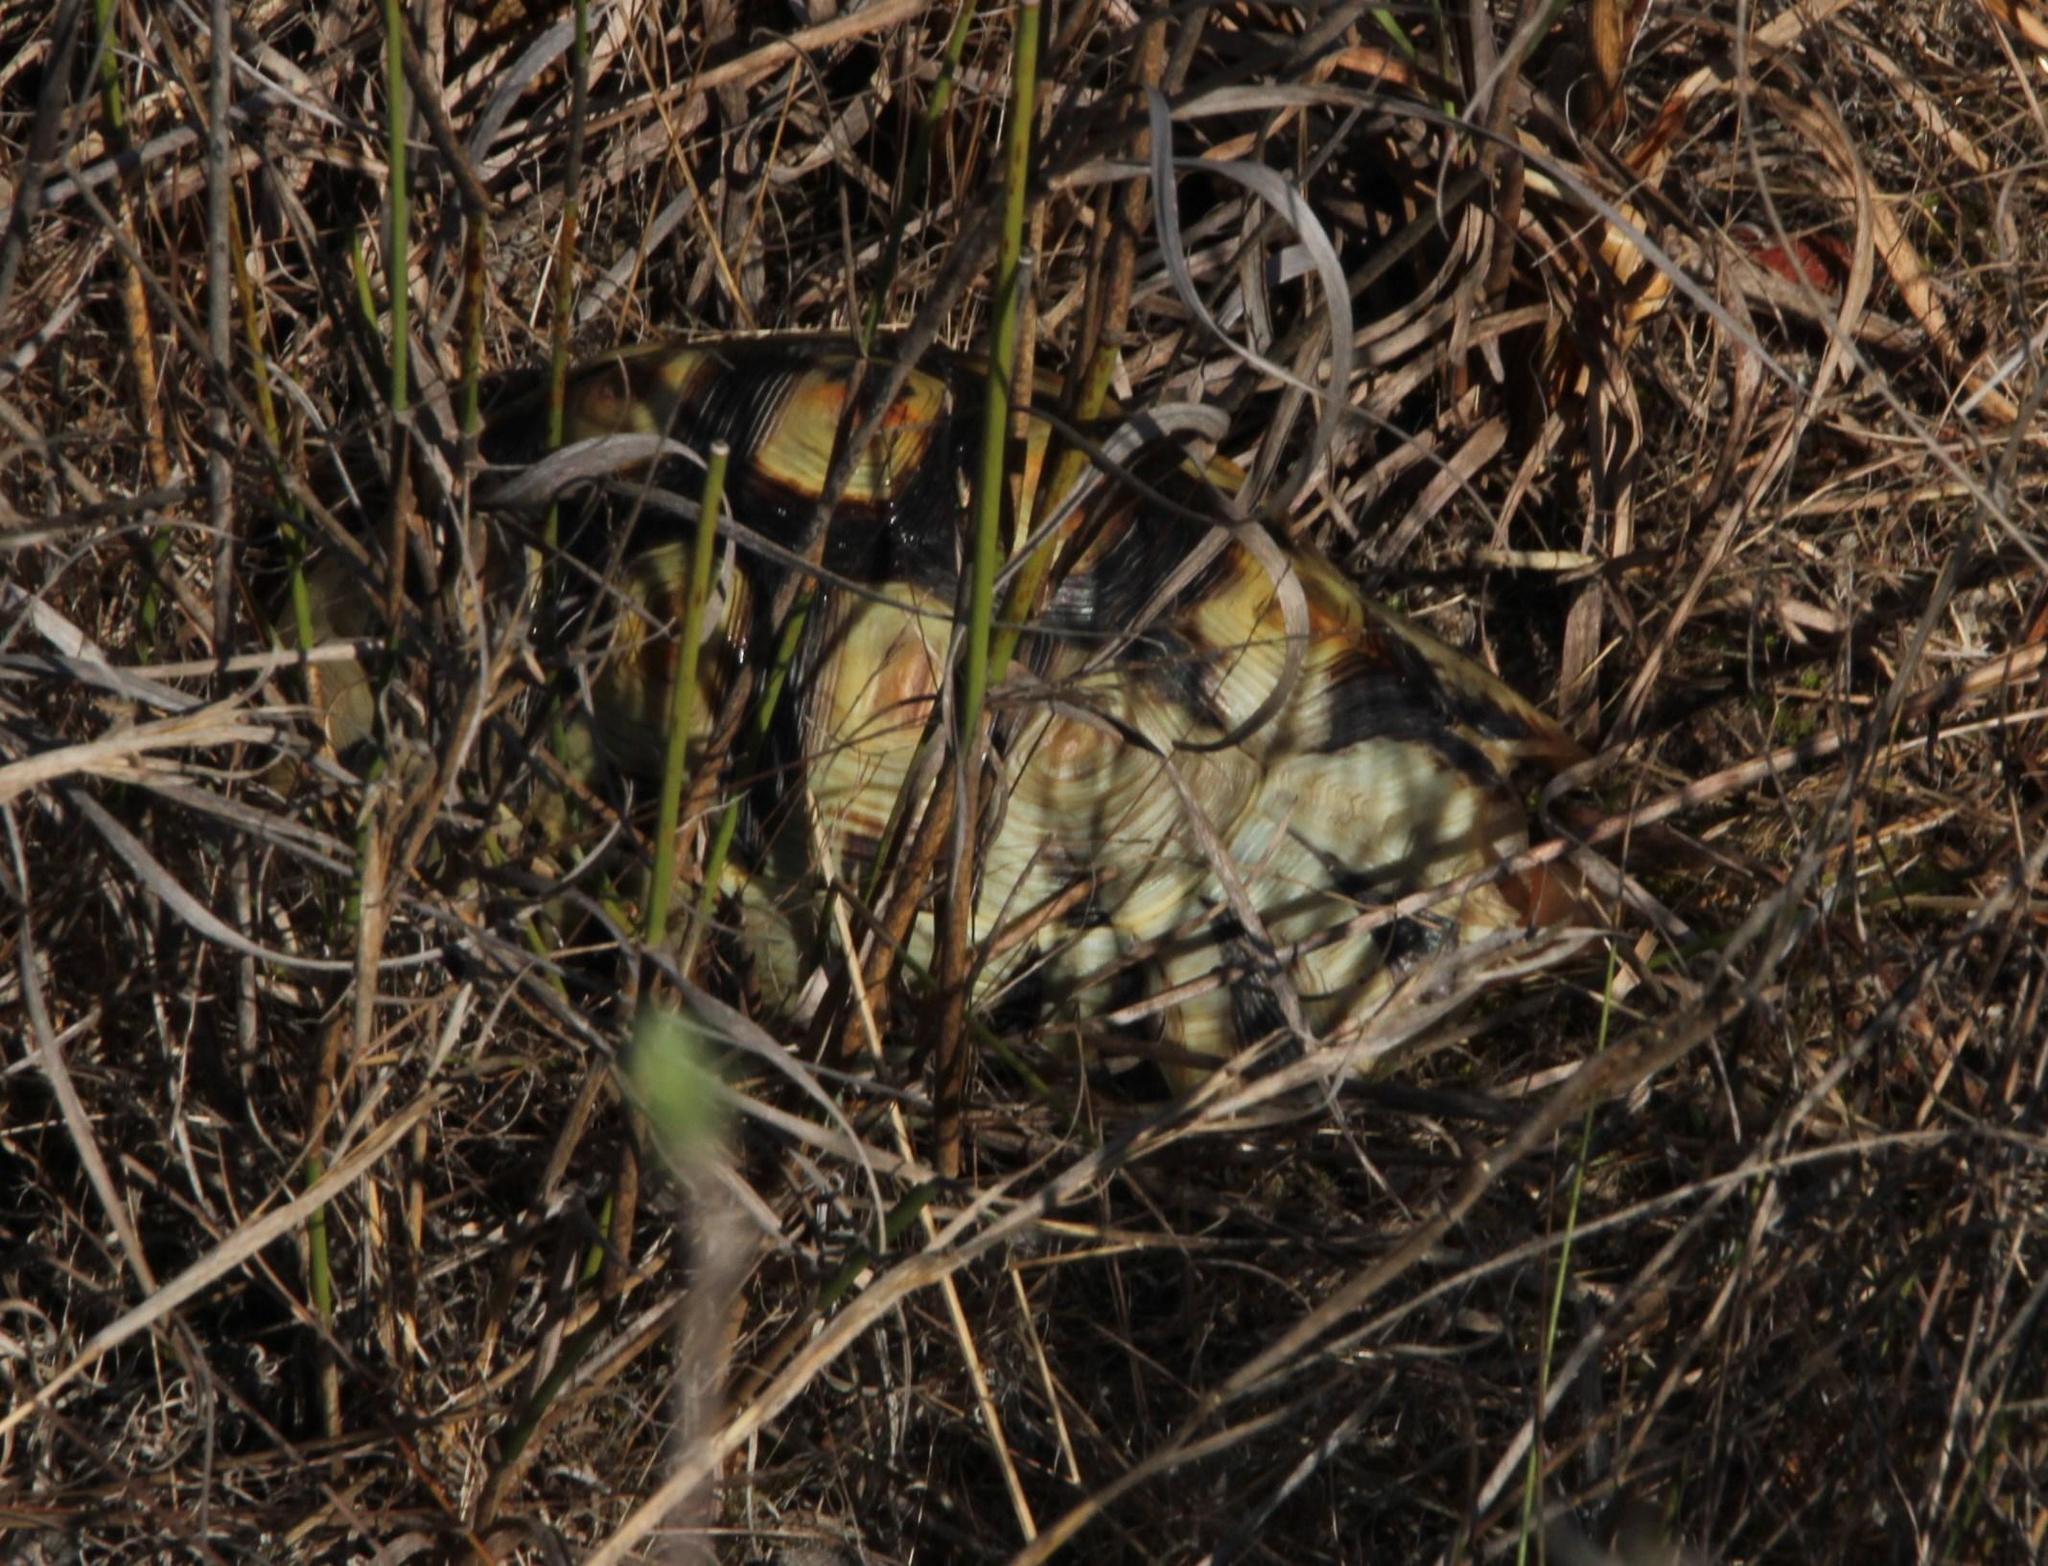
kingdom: Animalia
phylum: Chordata
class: Testudines
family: Testudinidae
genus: Chersina
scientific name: Chersina angulata
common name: South african bowsprit tortoise
